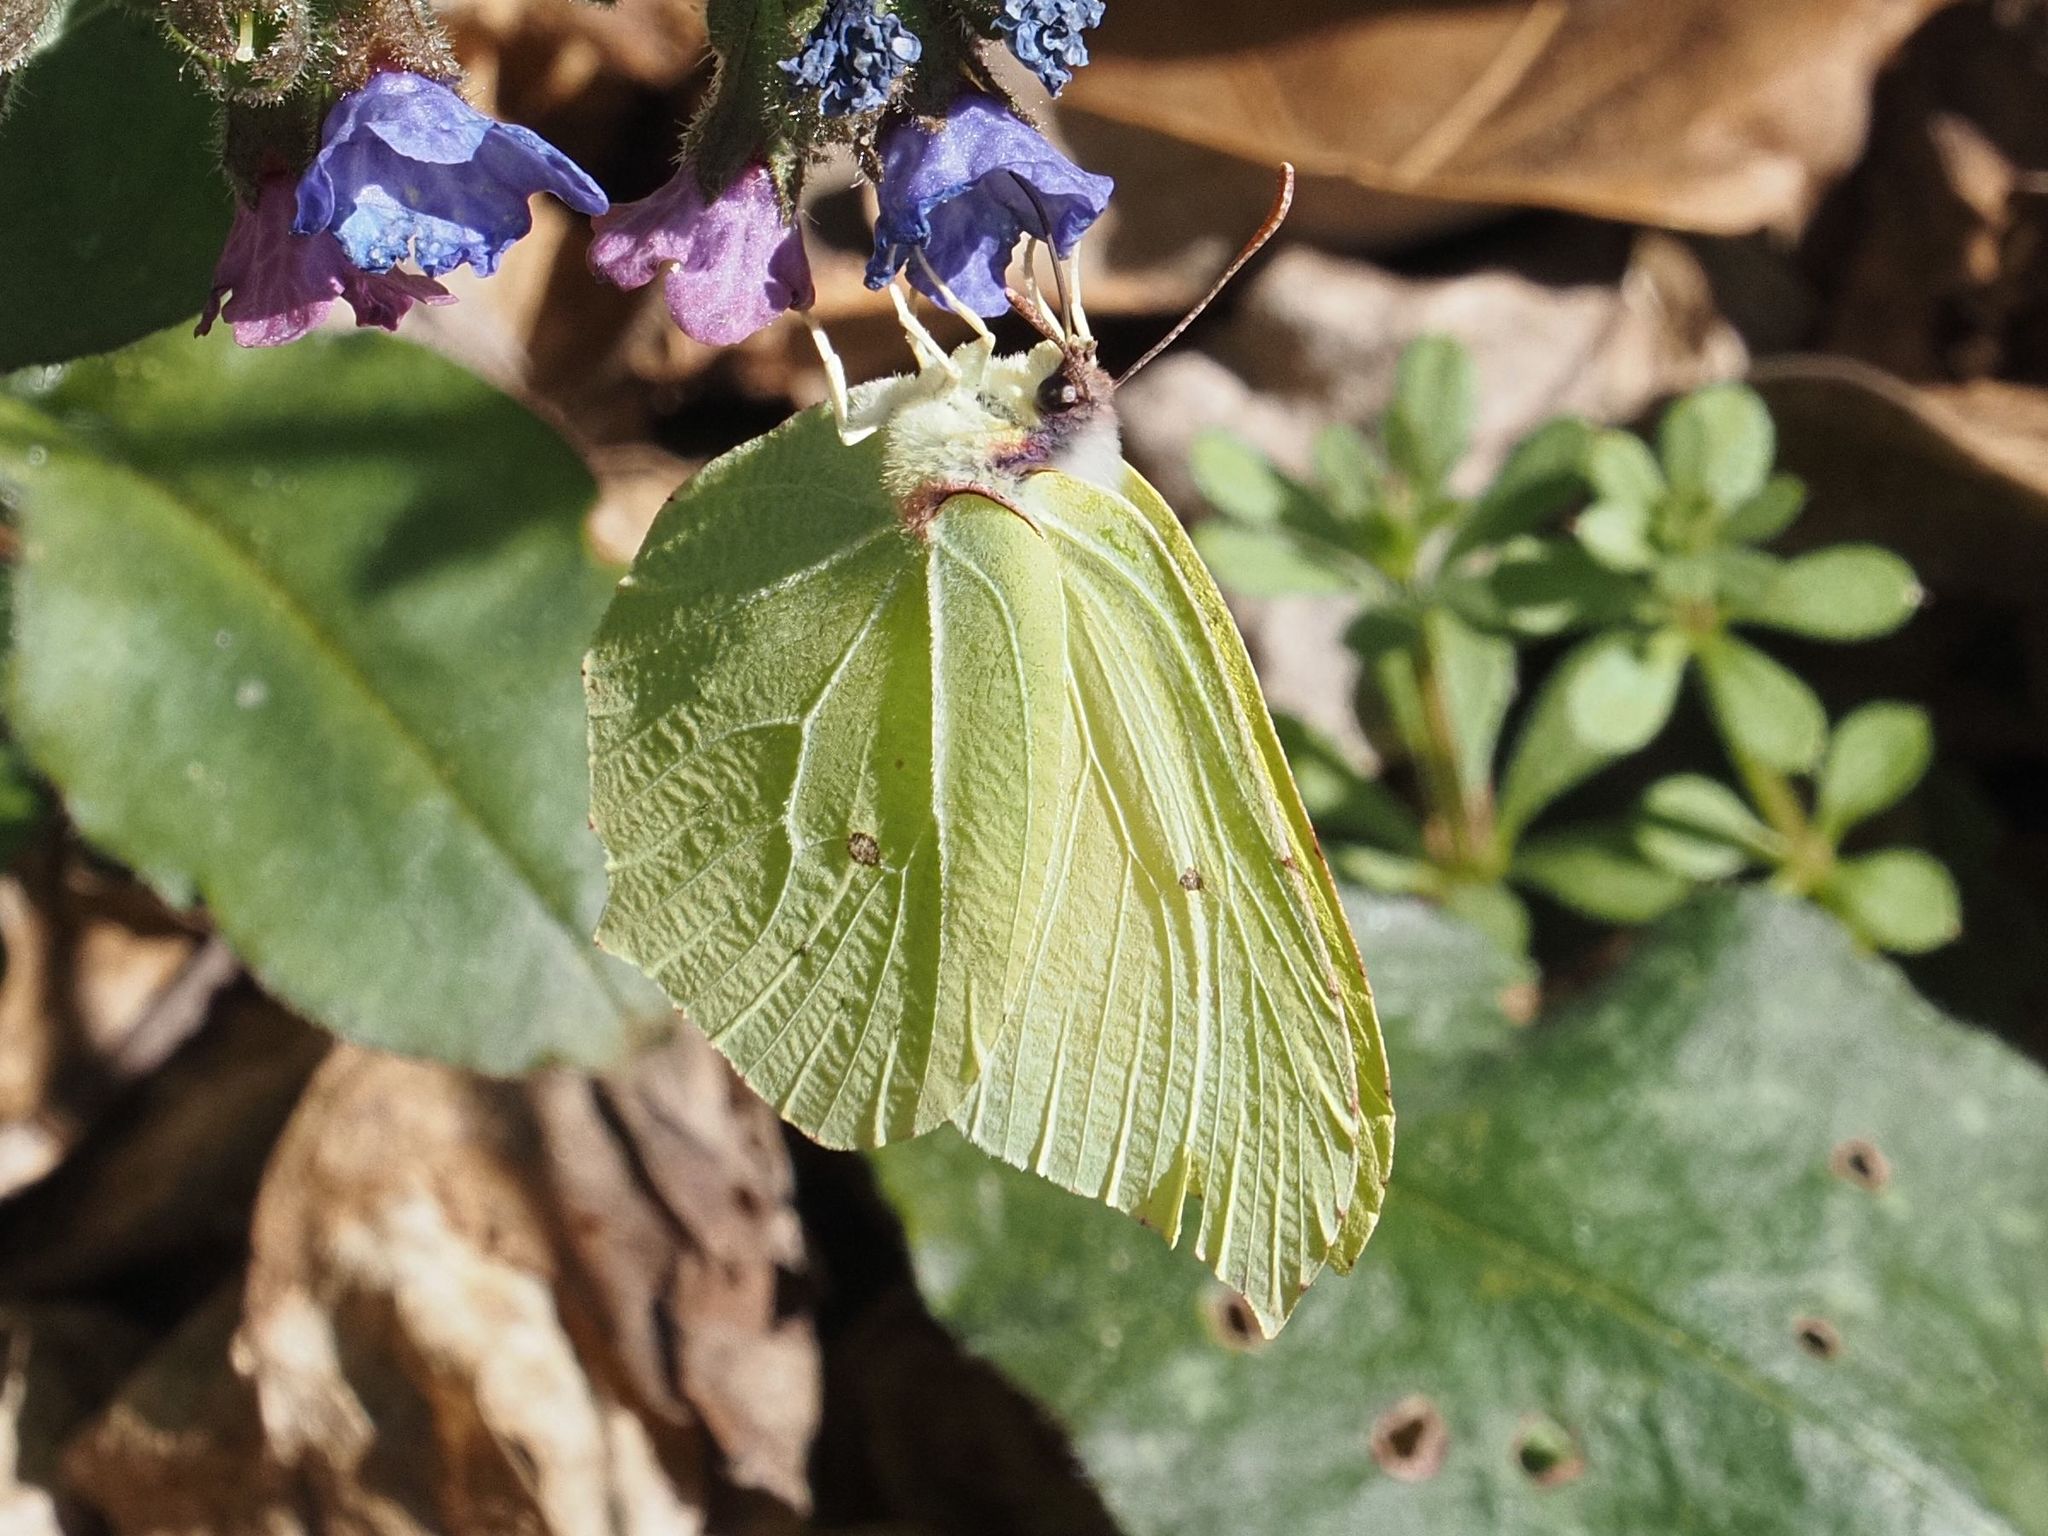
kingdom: Animalia
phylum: Arthropoda
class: Insecta
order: Lepidoptera
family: Pieridae
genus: Gonepteryx
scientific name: Gonepteryx rhamni
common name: Brimstone
